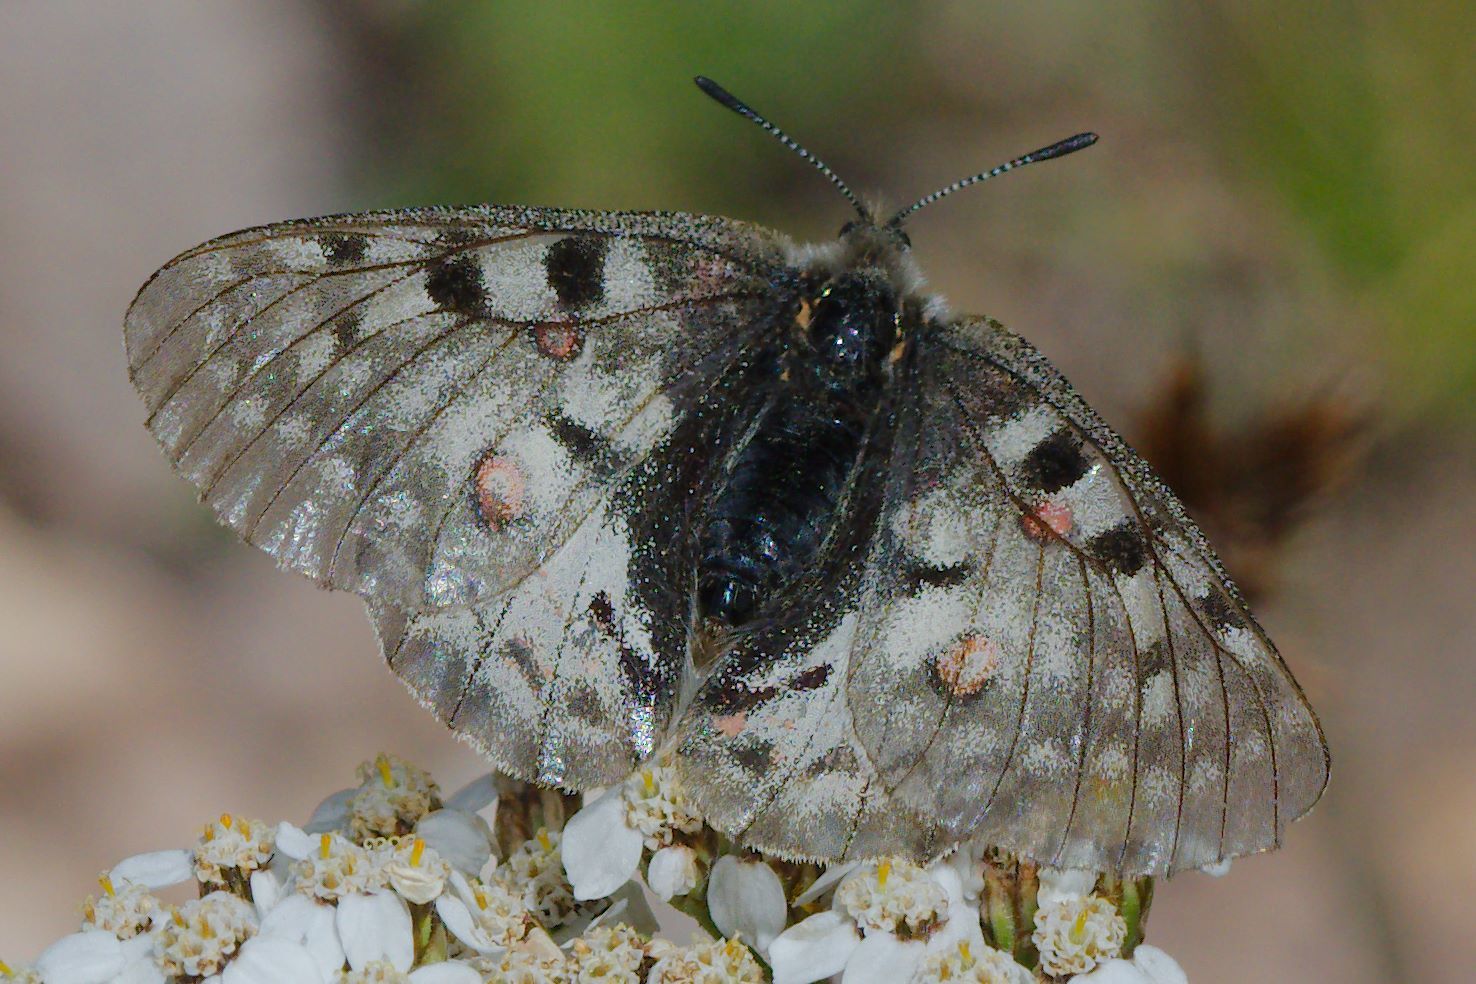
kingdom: Animalia
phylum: Arthropoda
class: Insecta
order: Lepidoptera
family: Papilionidae
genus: Parnassius
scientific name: Parnassius smintheus
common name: Mountain parnassian
